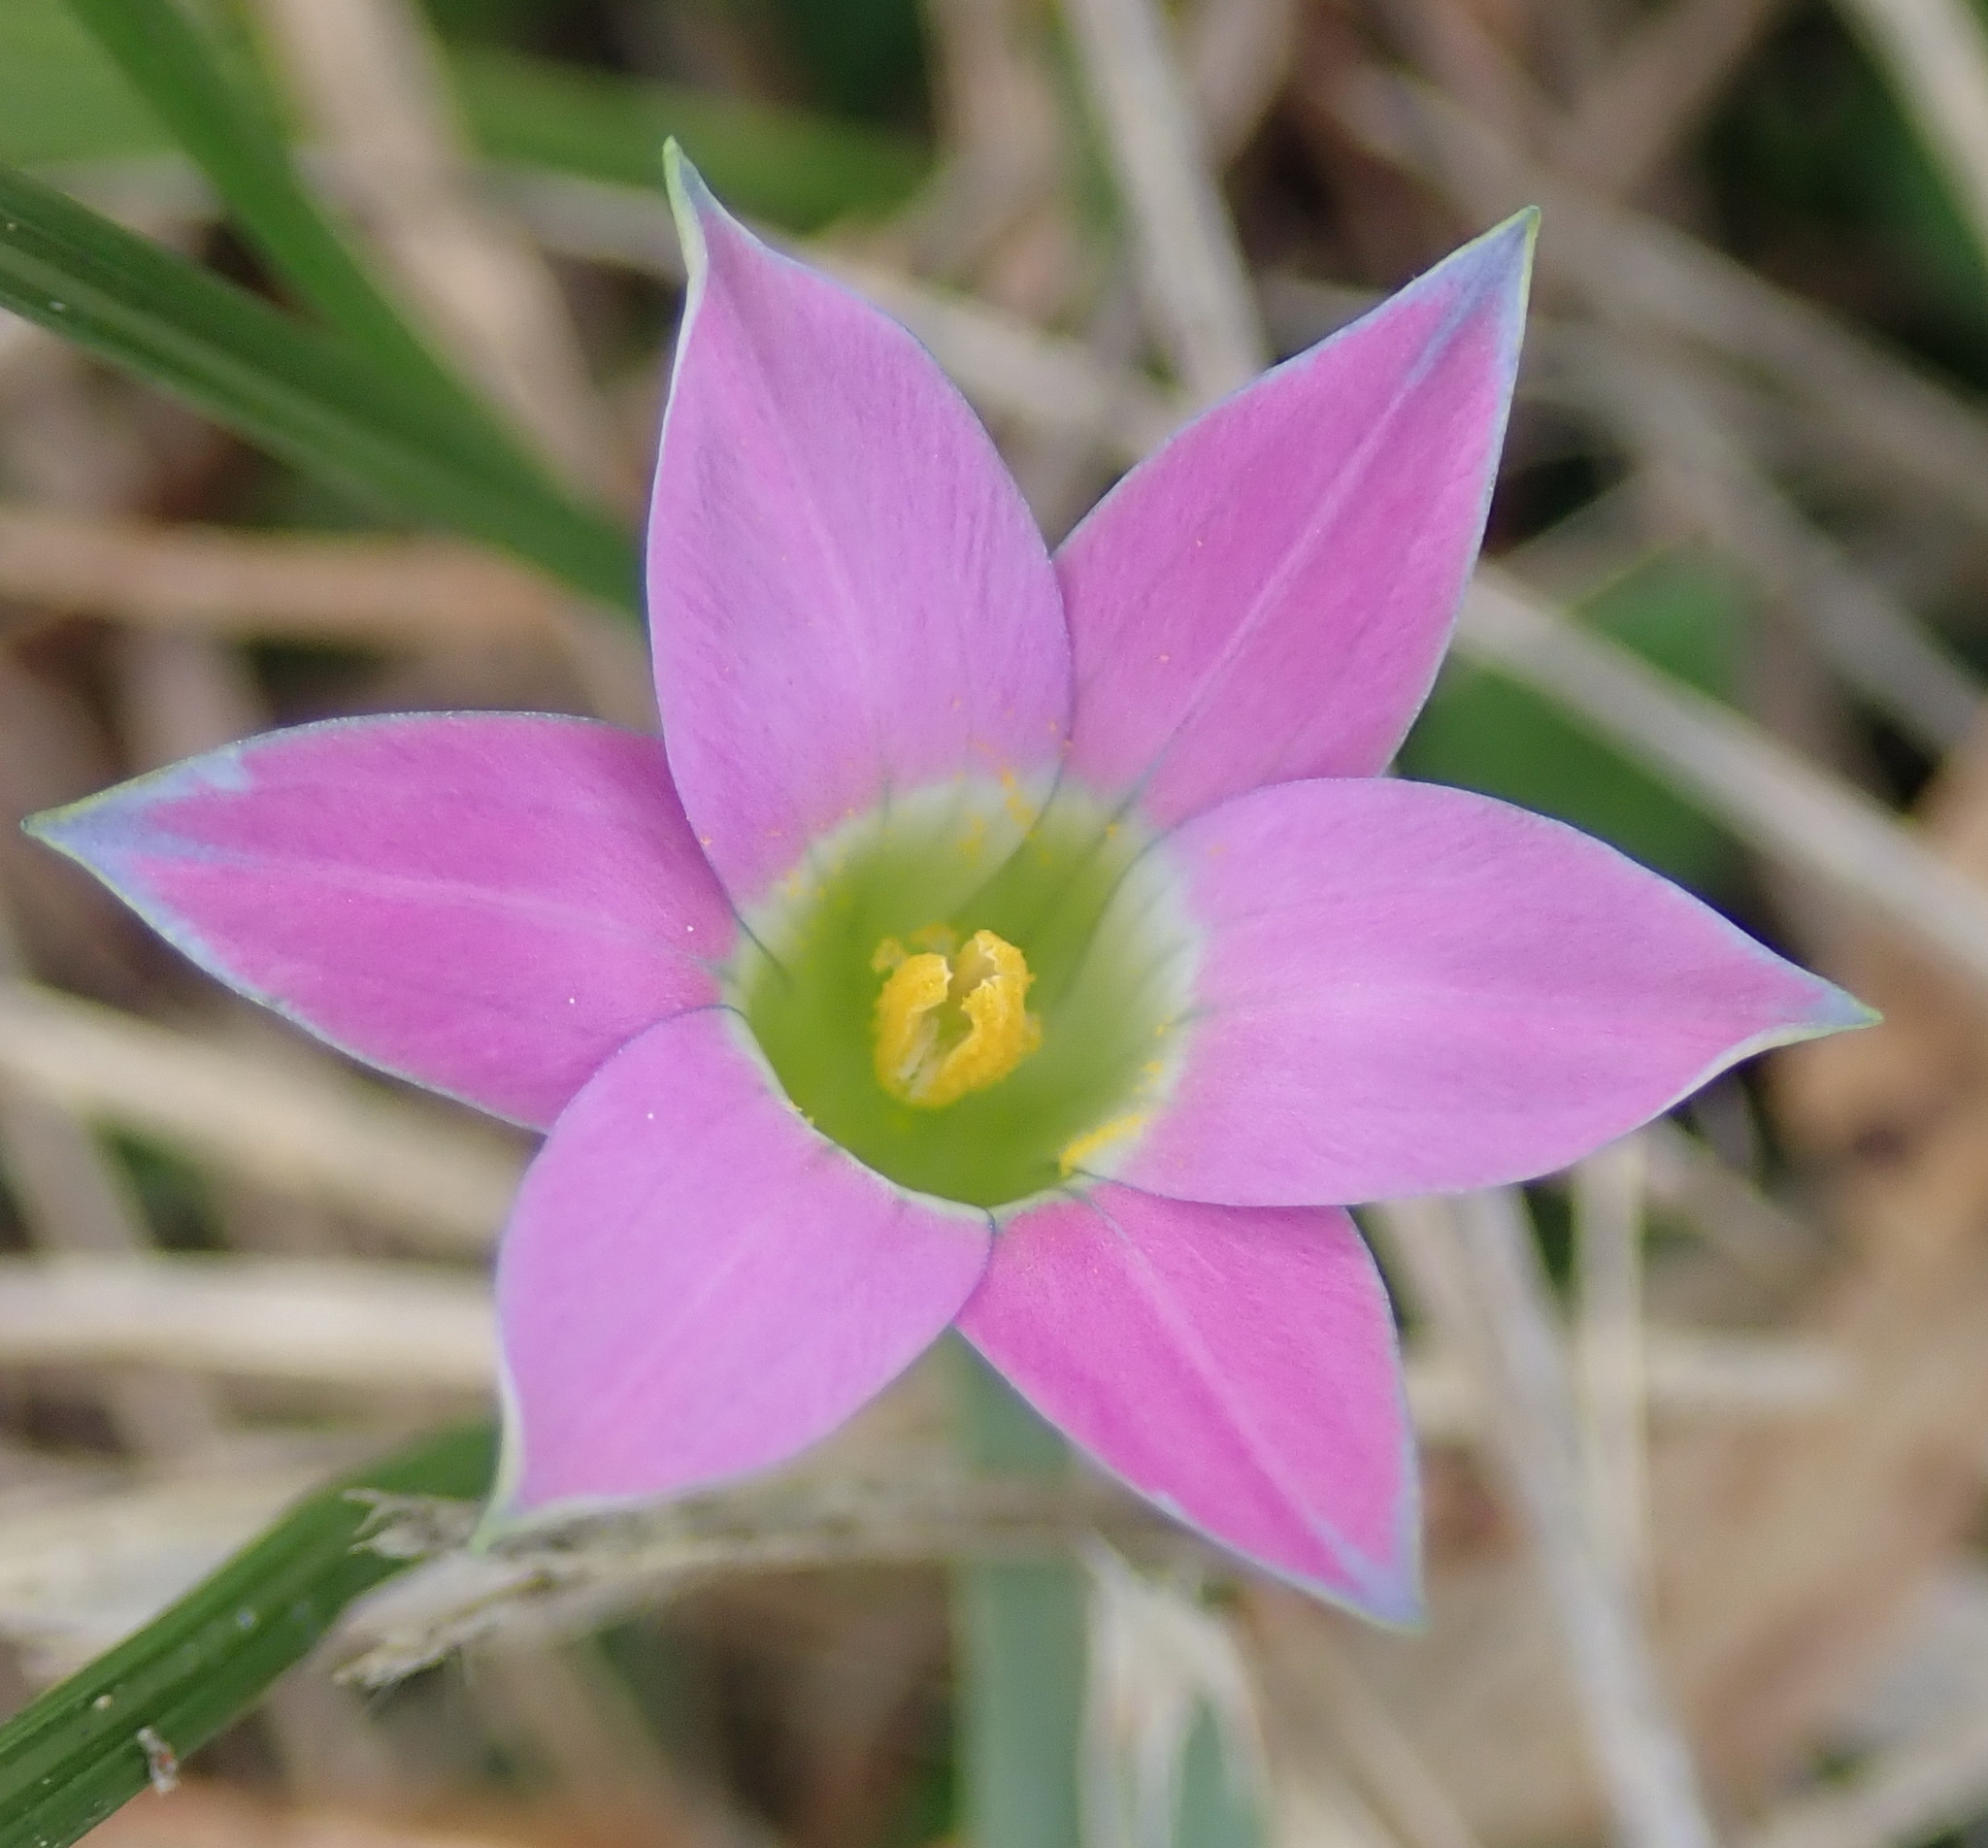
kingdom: Plantae
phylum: Tracheophyta
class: Liliopsida
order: Asparagales
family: Iridaceae
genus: Romulea
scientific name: Romulea rosea
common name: Oniongrass
